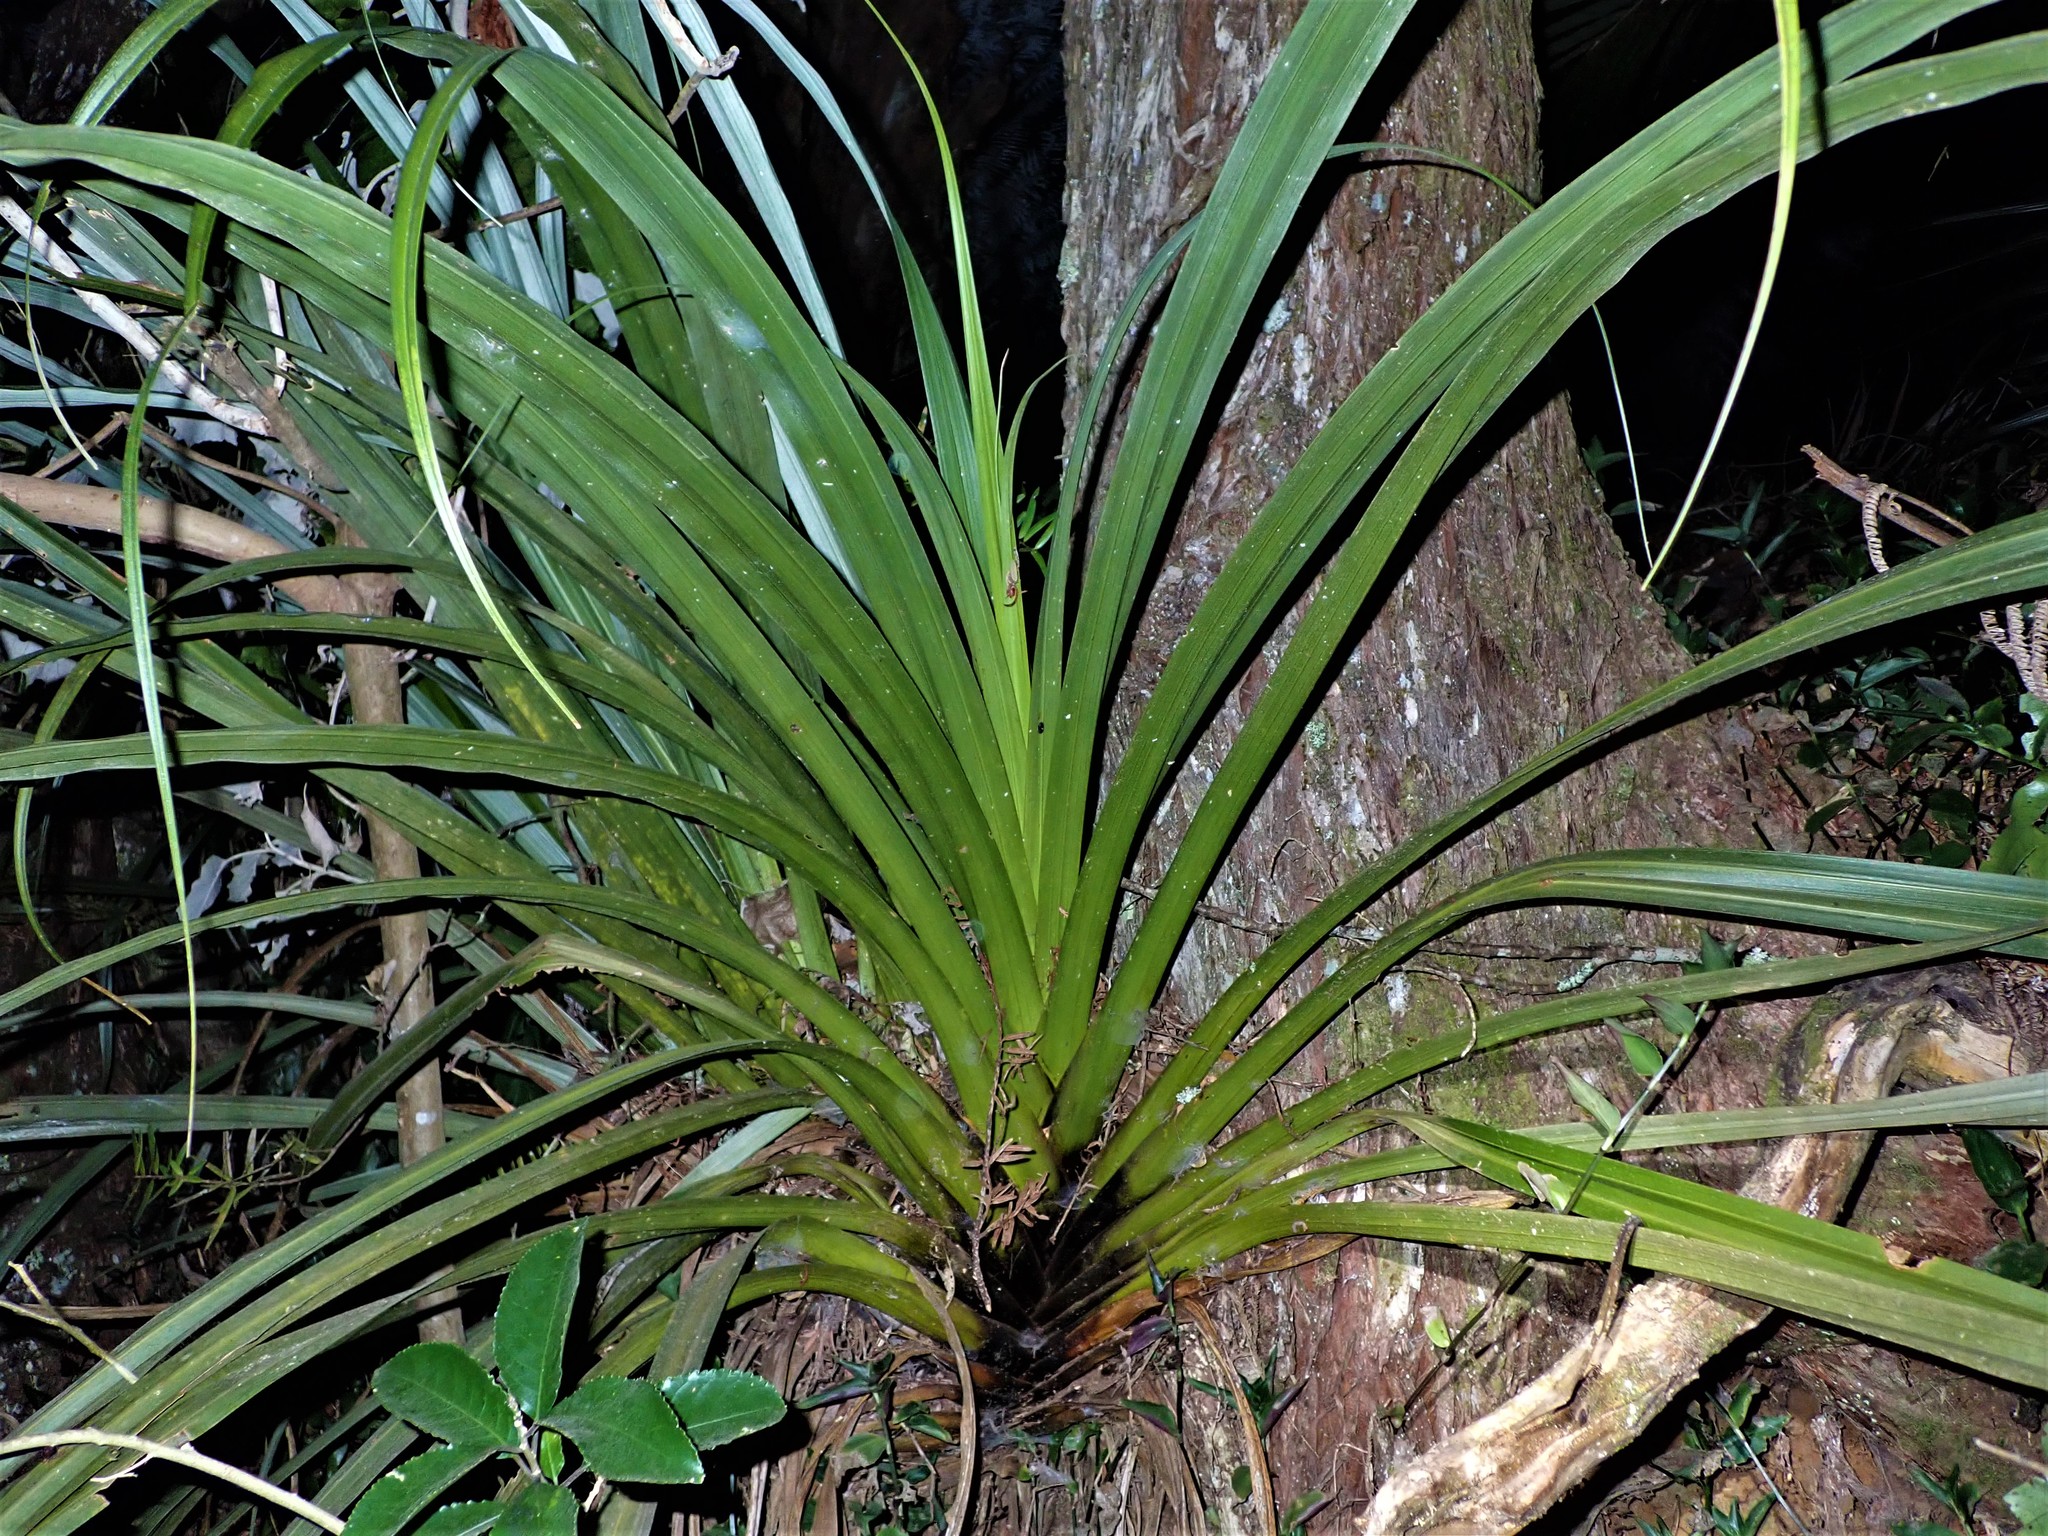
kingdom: Plantae
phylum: Tracheophyta
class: Liliopsida
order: Asparagales
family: Asteliaceae
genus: Astelia
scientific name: Astelia hastata
